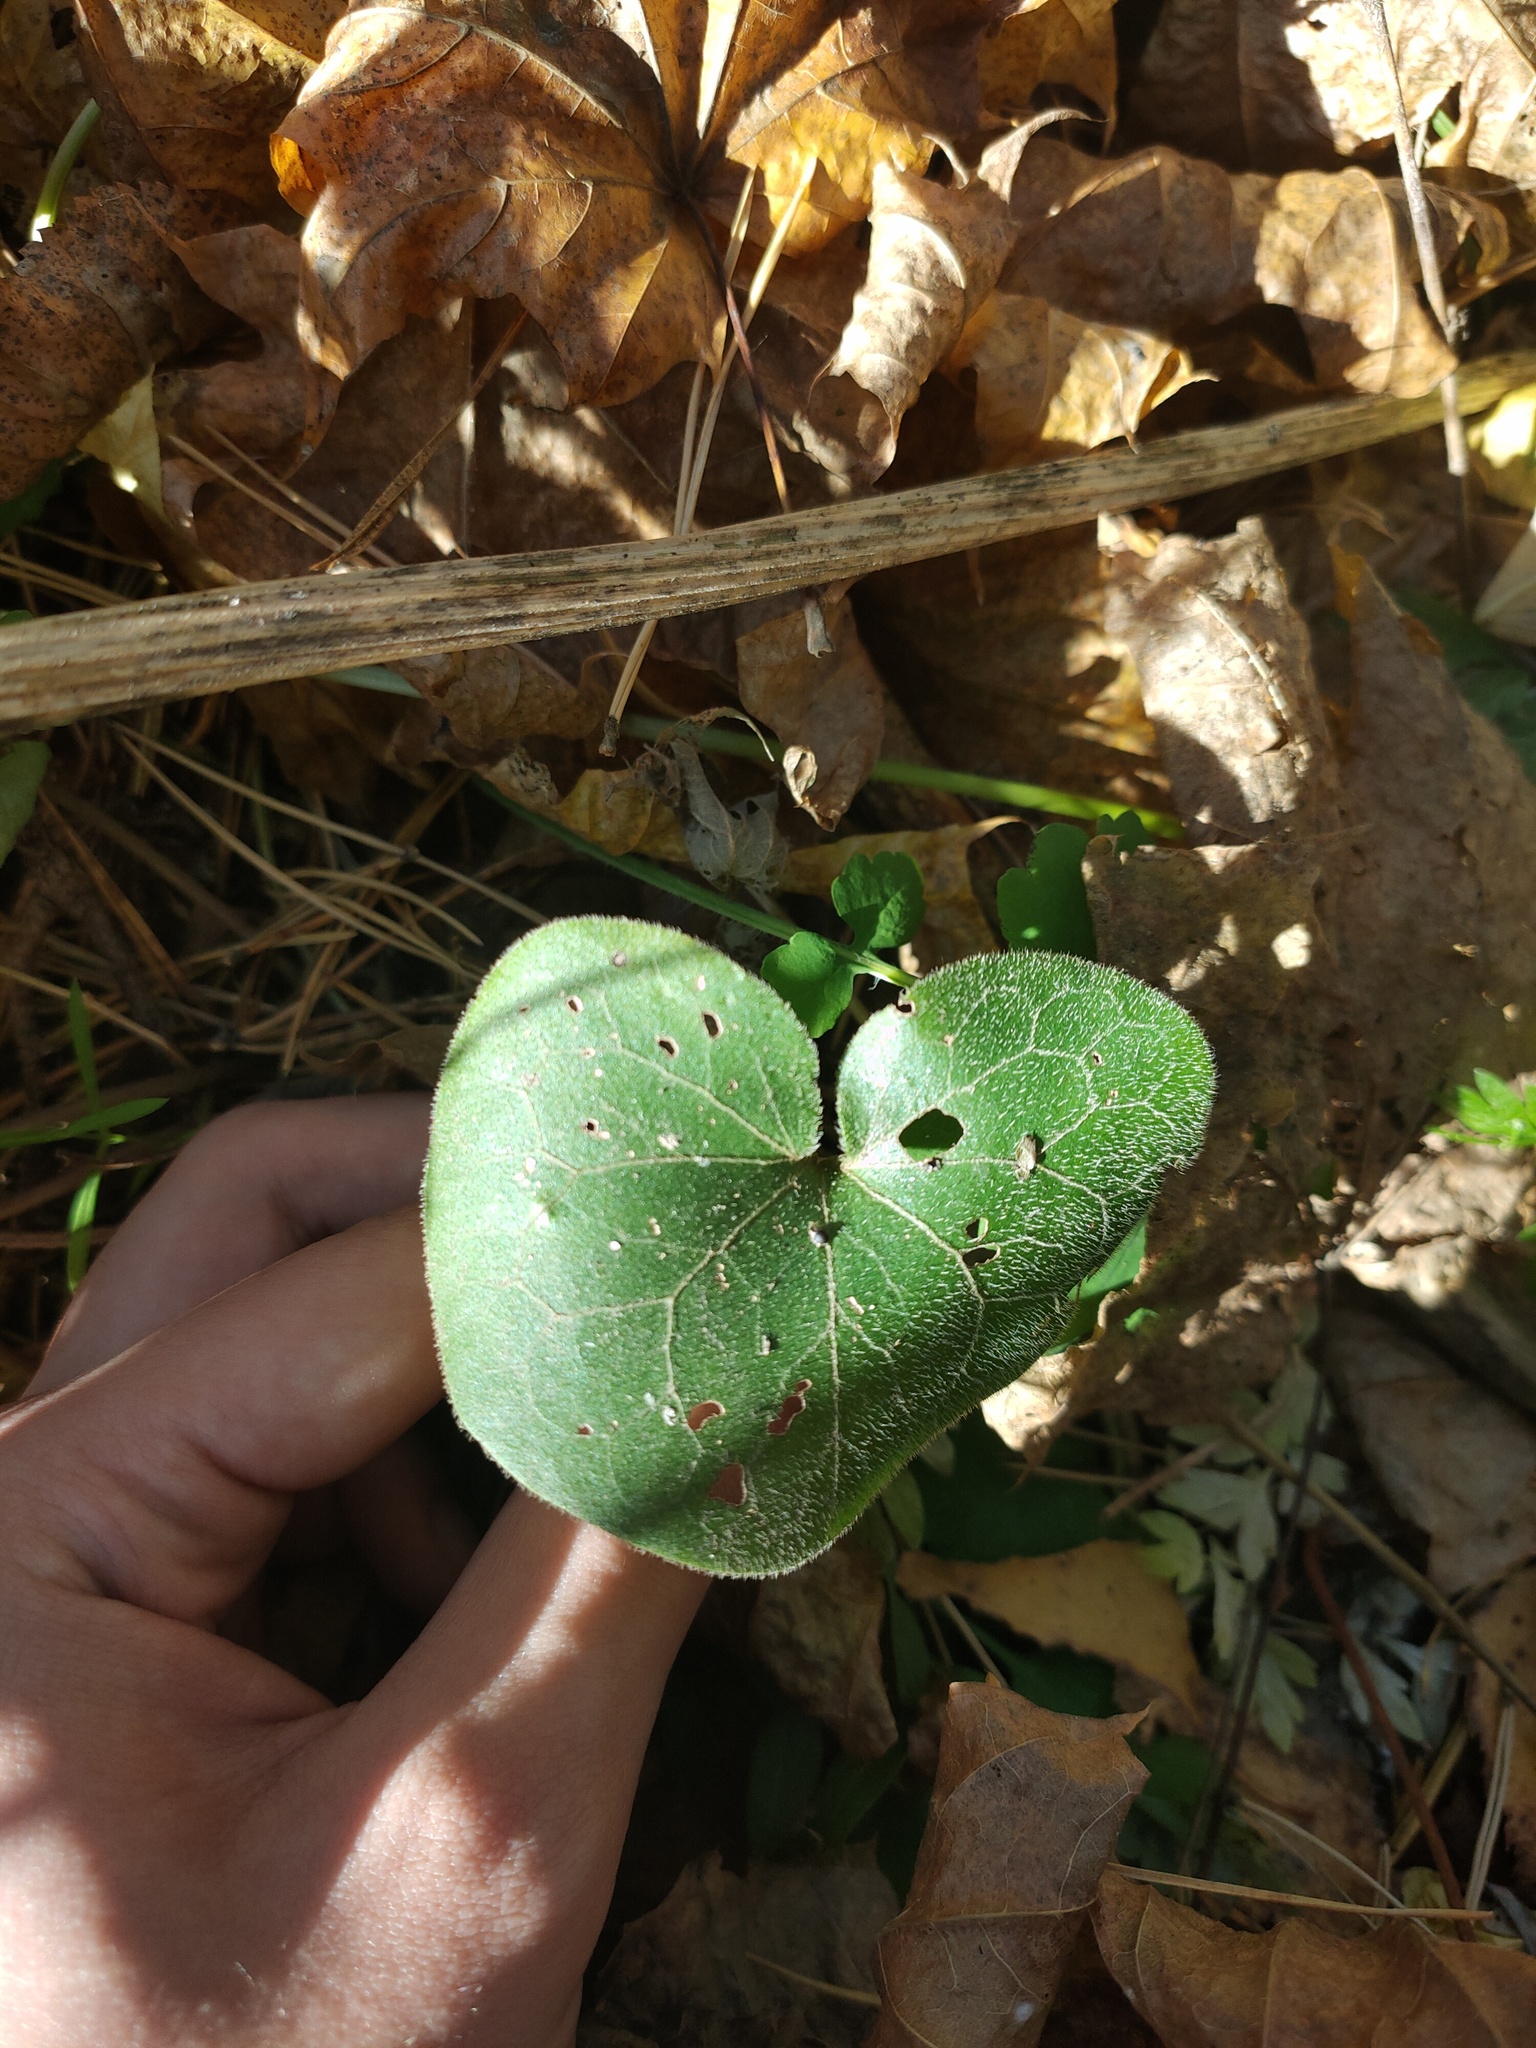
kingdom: Plantae
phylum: Tracheophyta
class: Magnoliopsida
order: Piperales
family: Aristolochiaceae
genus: Asarum
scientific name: Asarum europaeum
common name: Asarabacca
